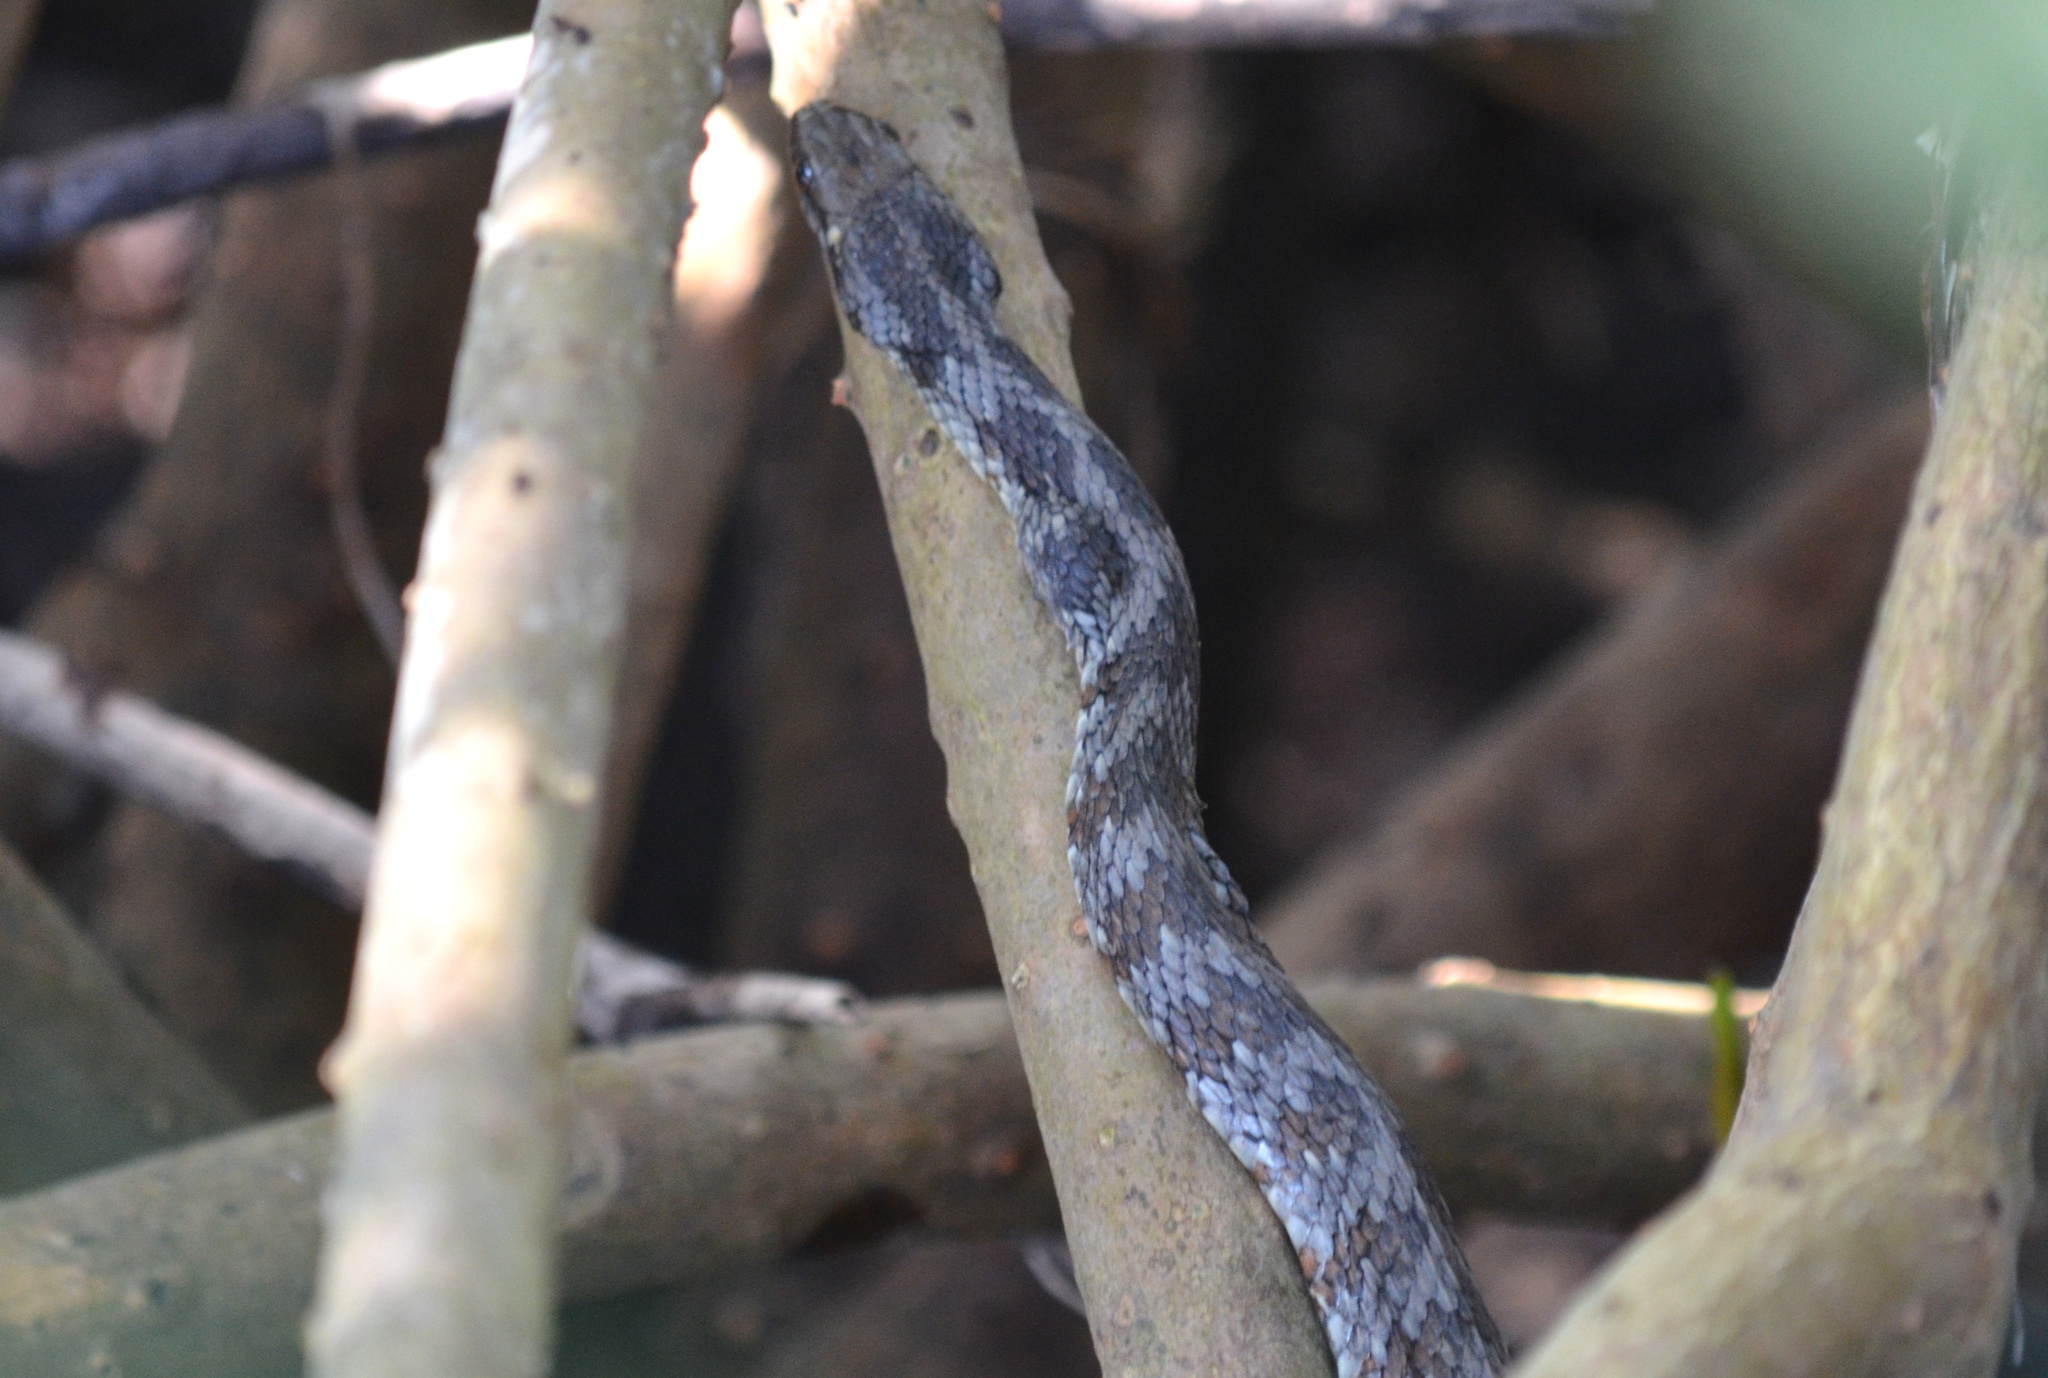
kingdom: Animalia
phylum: Chordata
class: Squamata
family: Colubridae
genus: Nerodia
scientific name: Nerodia clarkii
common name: Atlantic saltmarsh snake
